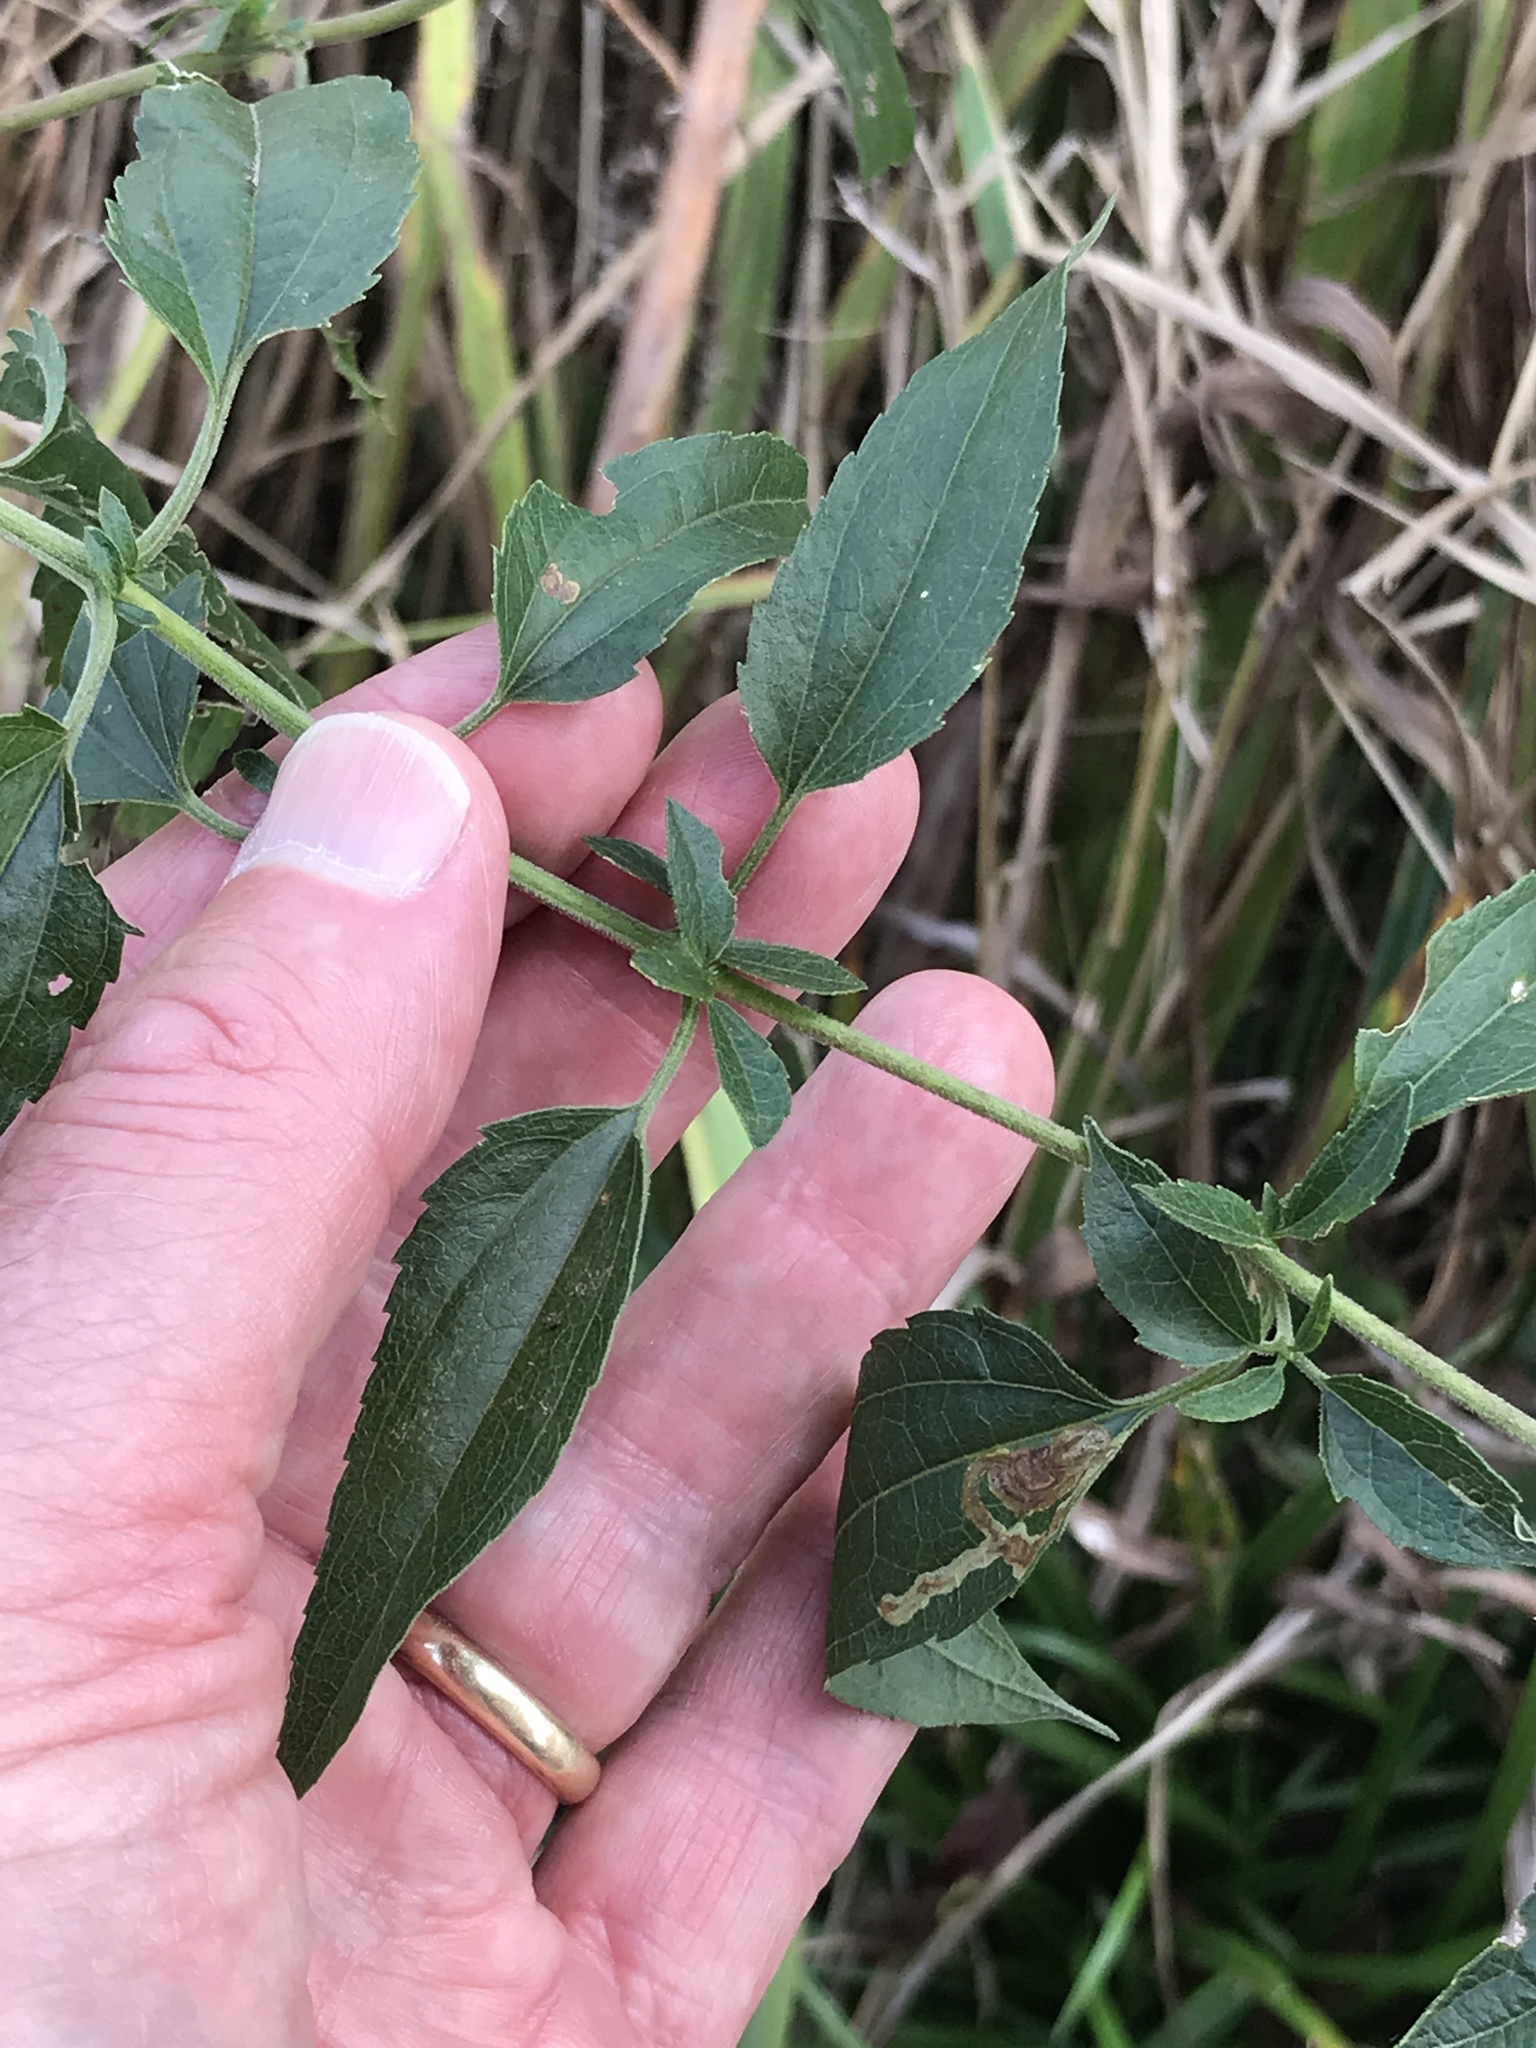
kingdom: Plantae
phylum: Tracheophyta
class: Magnoliopsida
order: Asterales
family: Asteraceae
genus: Eupatorium
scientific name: Eupatorium serotinum
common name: Late boneset
